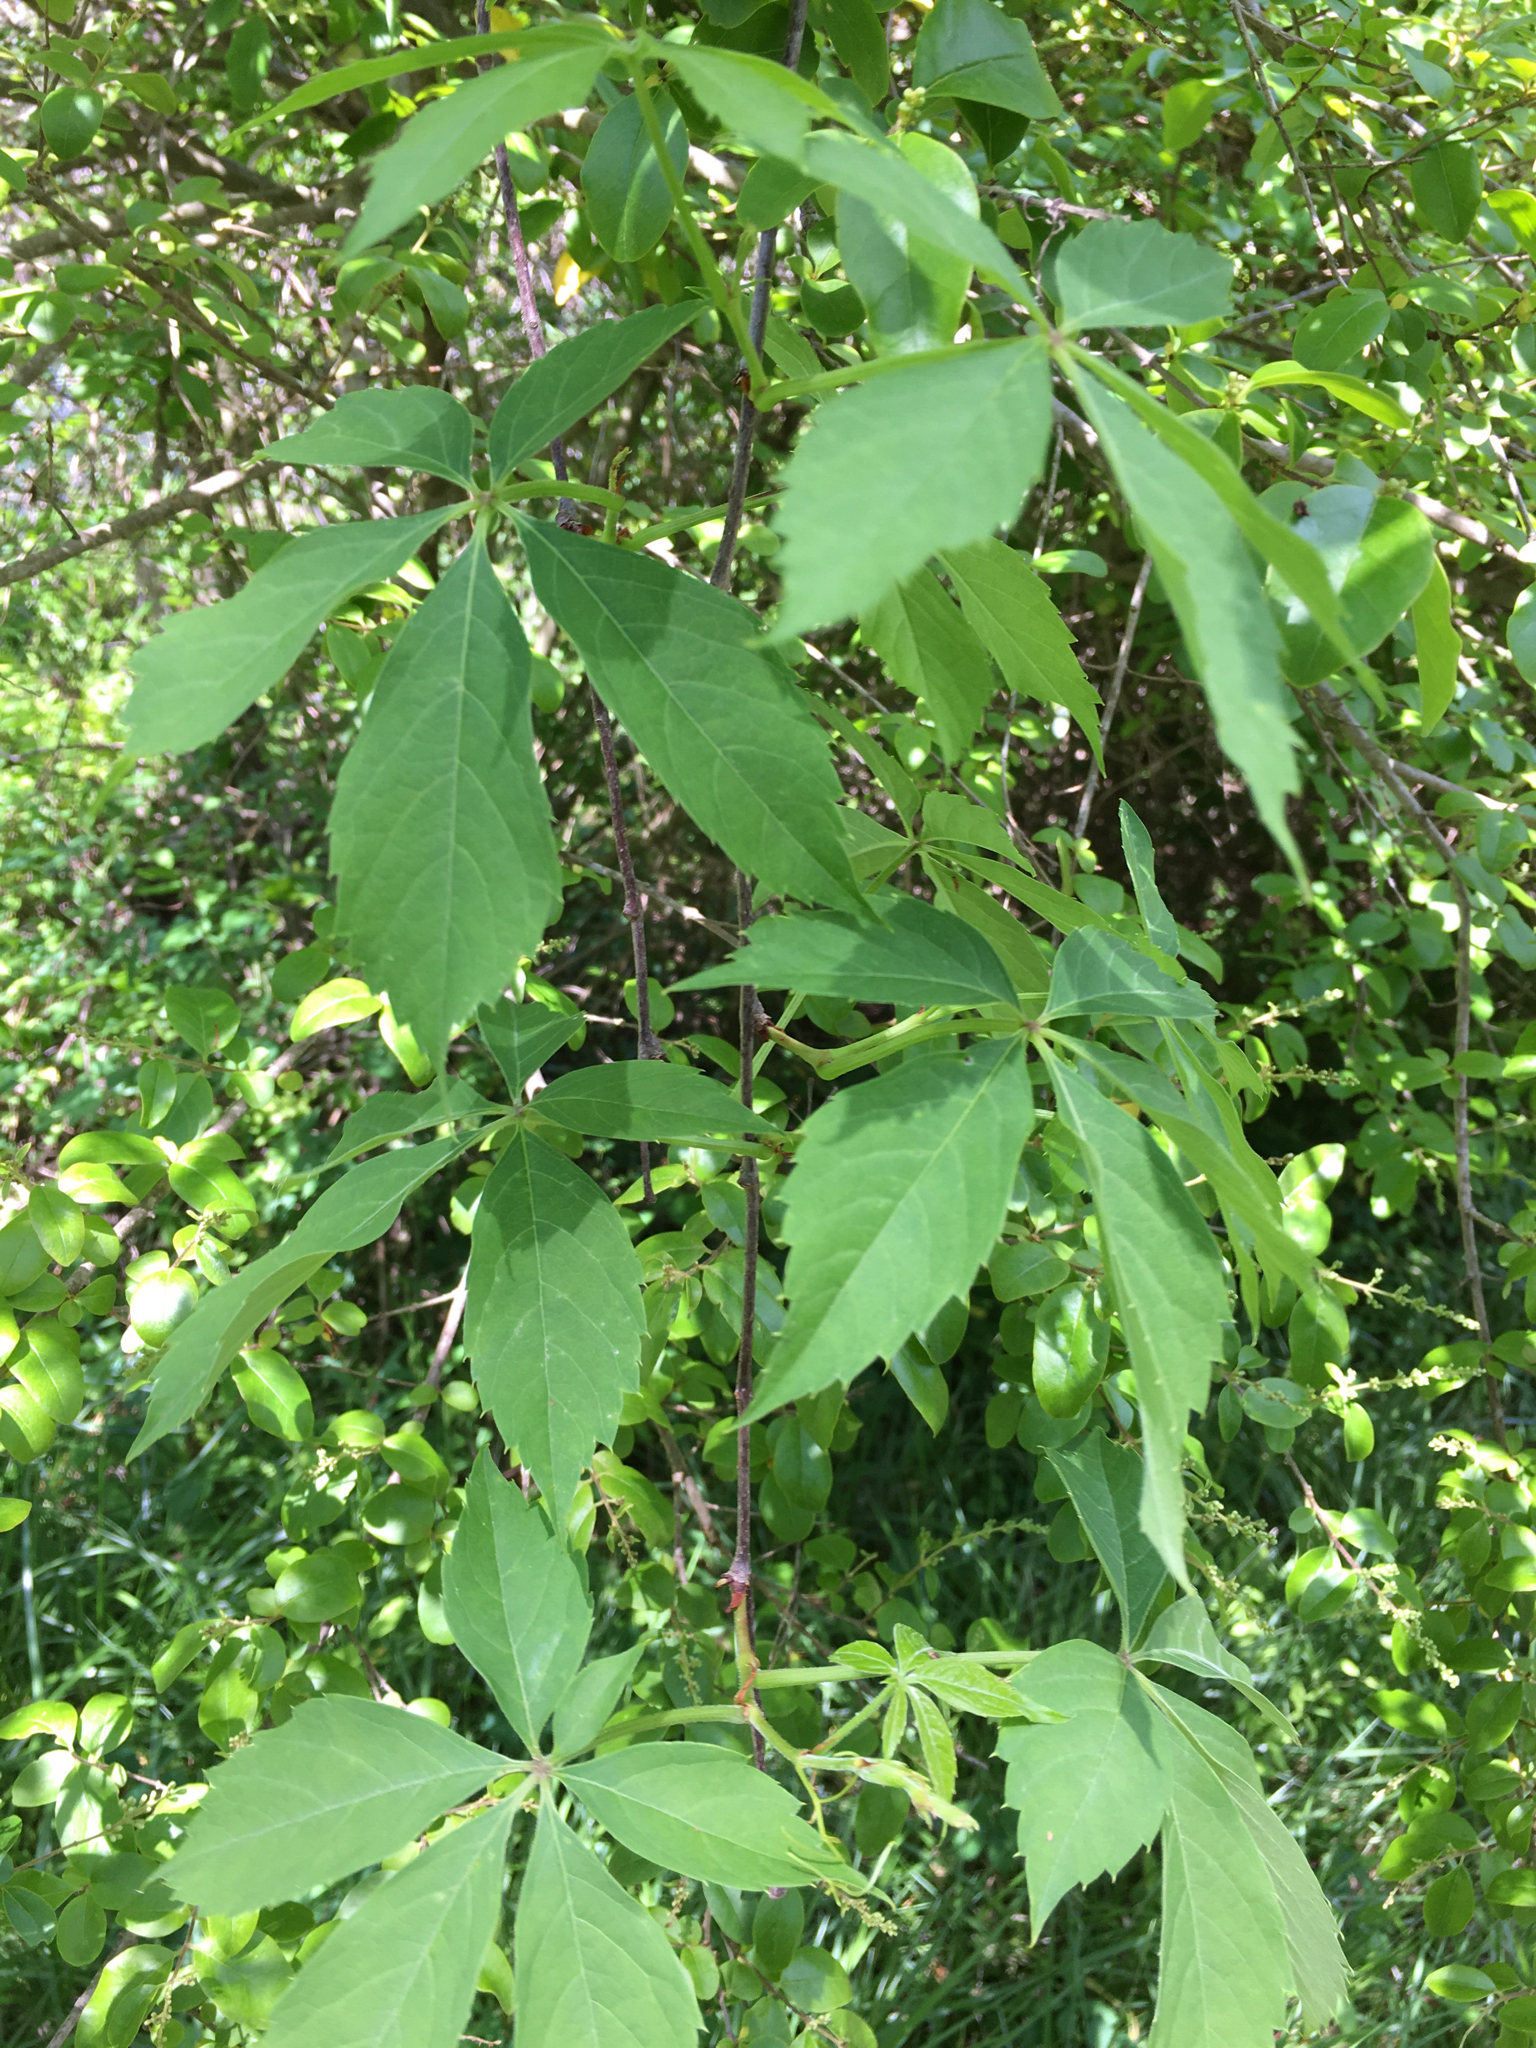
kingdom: Plantae
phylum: Tracheophyta
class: Magnoliopsida
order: Vitales
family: Vitaceae
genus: Parthenocissus
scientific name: Parthenocissus quinquefolia
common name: Virginia-creeper
